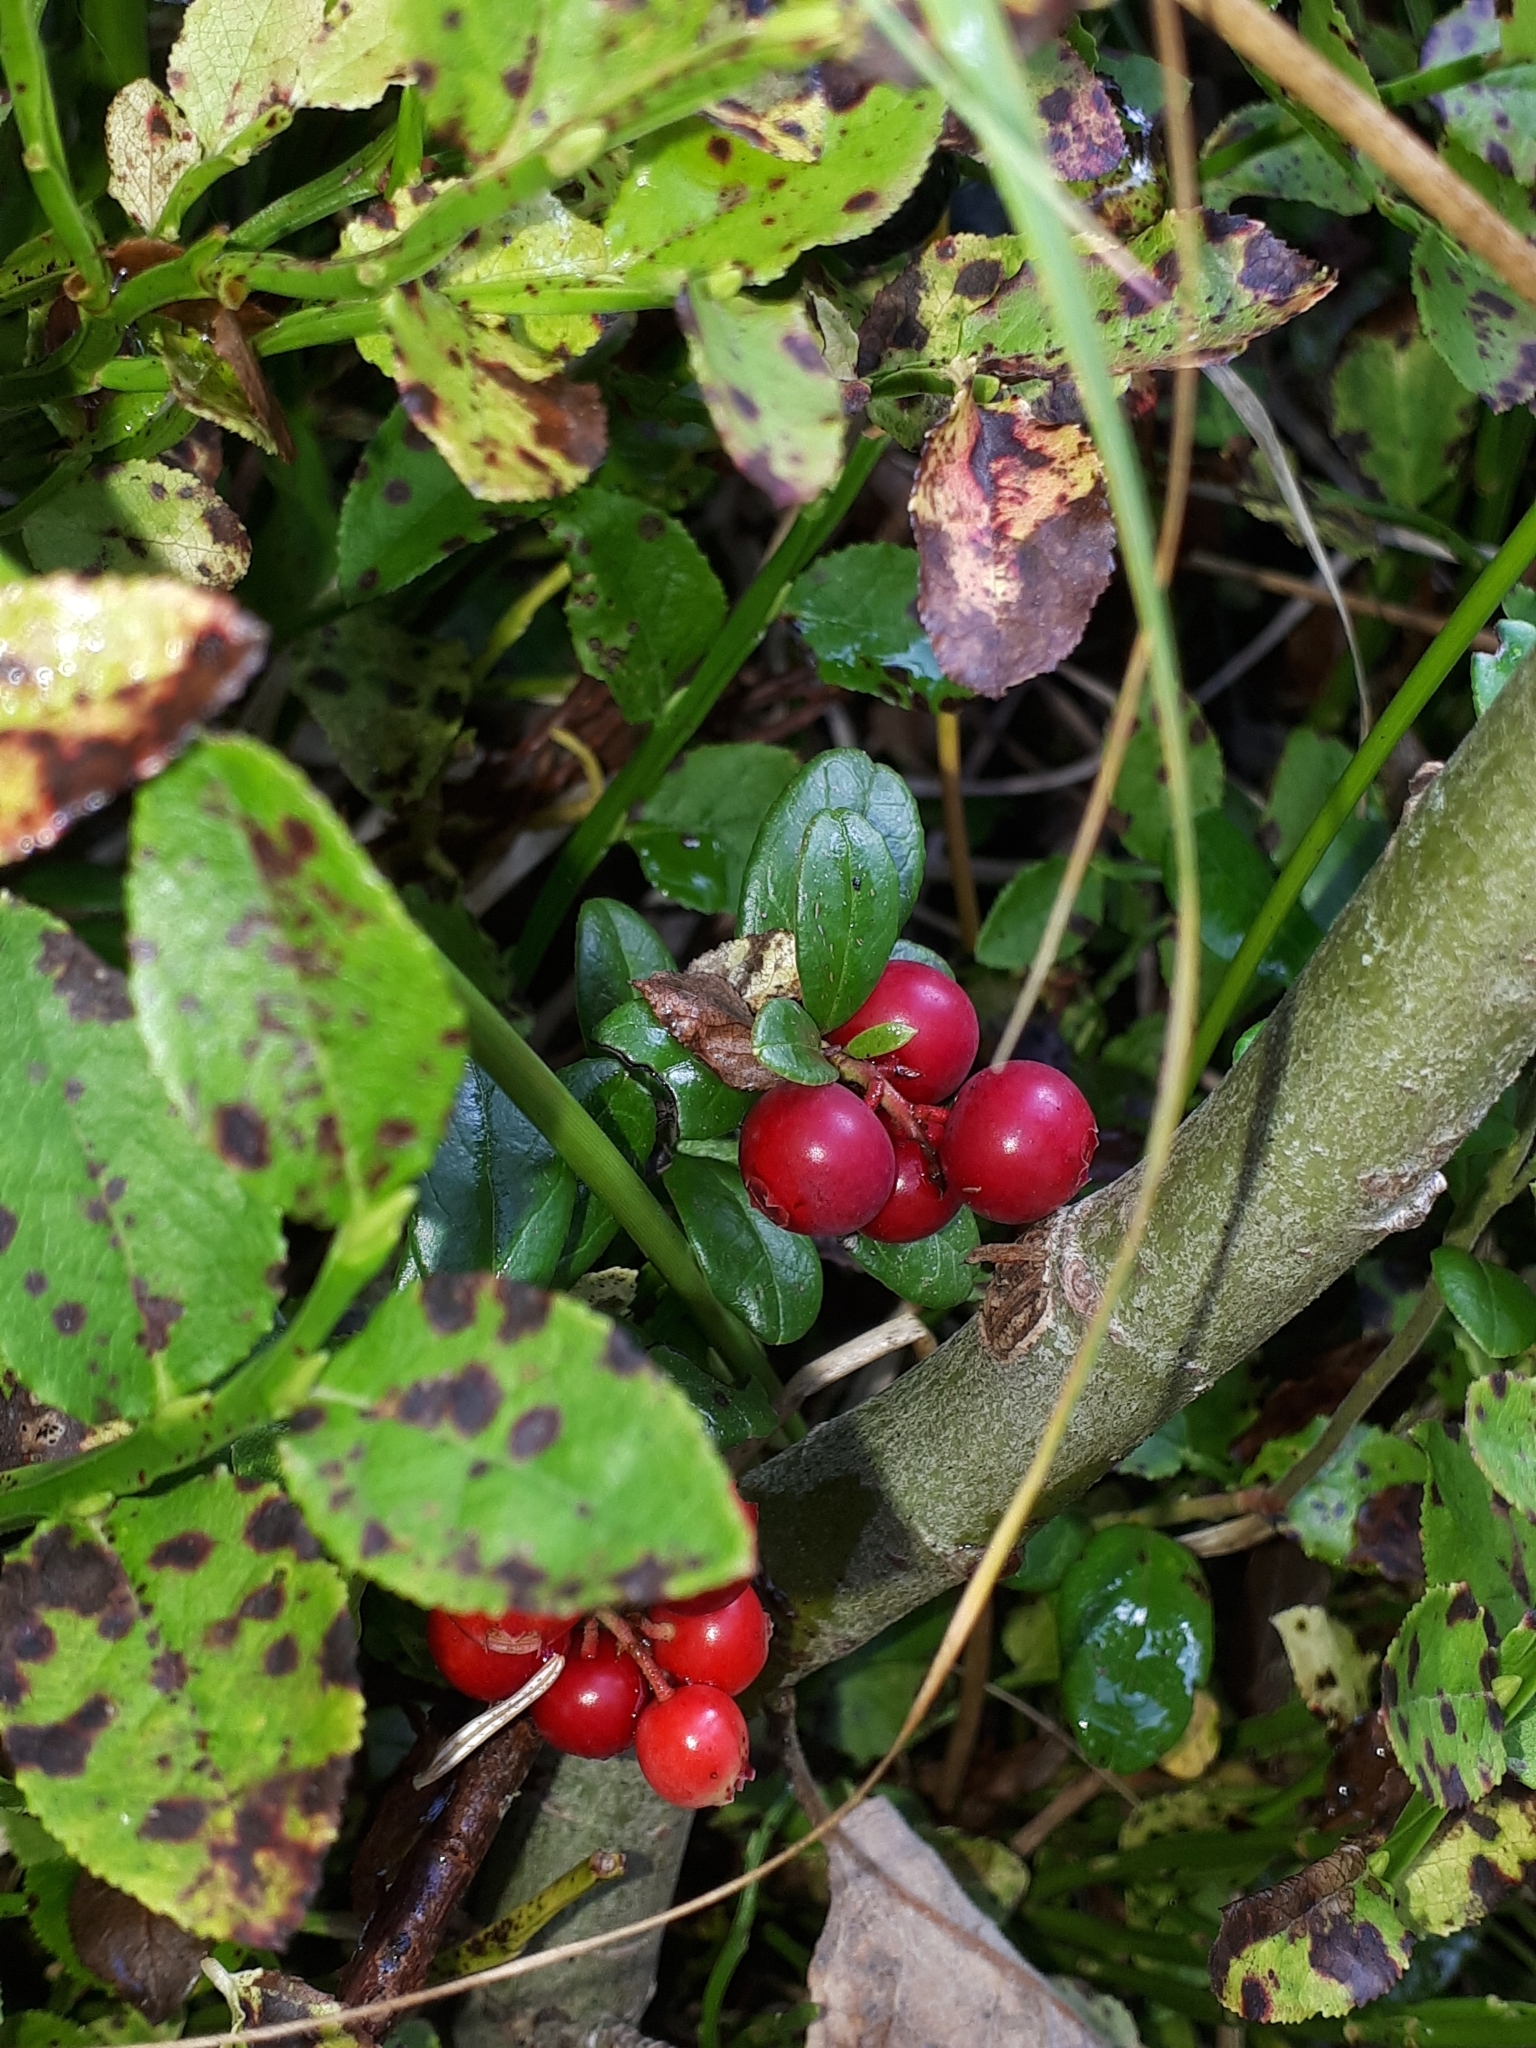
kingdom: Plantae
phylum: Tracheophyta
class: Magnoliopsida
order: Ericales
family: Ericaceae
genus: Vaccinium
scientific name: Vaccinium vitis-idaea
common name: Cowberry
